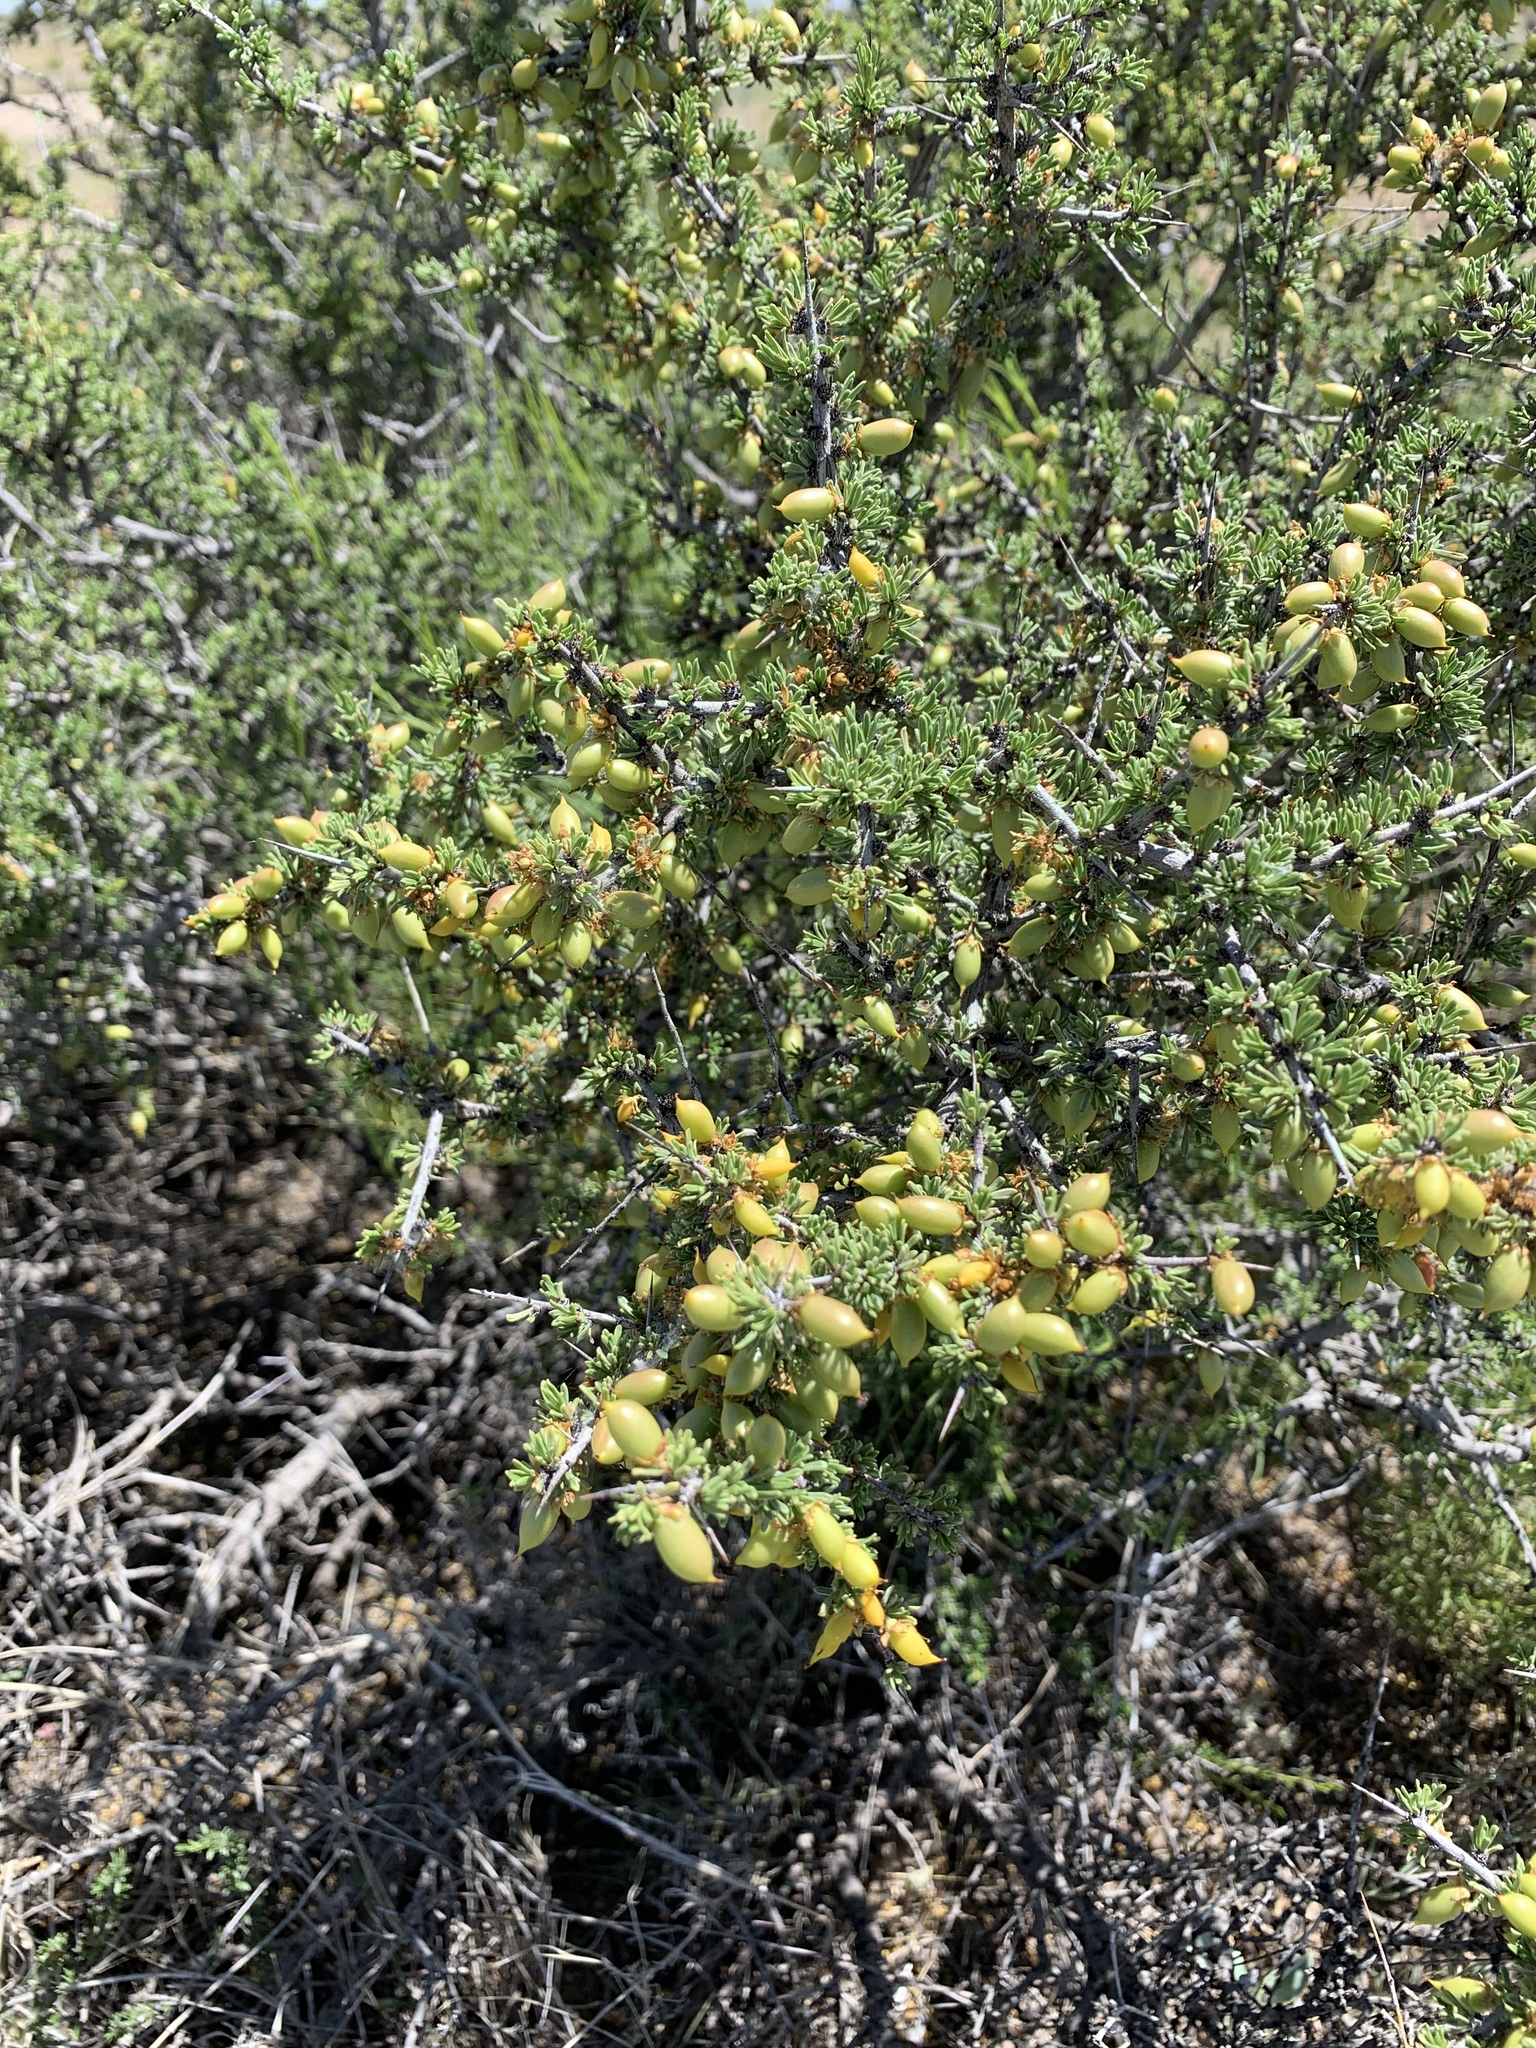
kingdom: Plantae
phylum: Tracheophyta
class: Magnoliopsida
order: Rosales
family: Rhamnaceae
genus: Condalia
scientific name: Condalia ericoides
